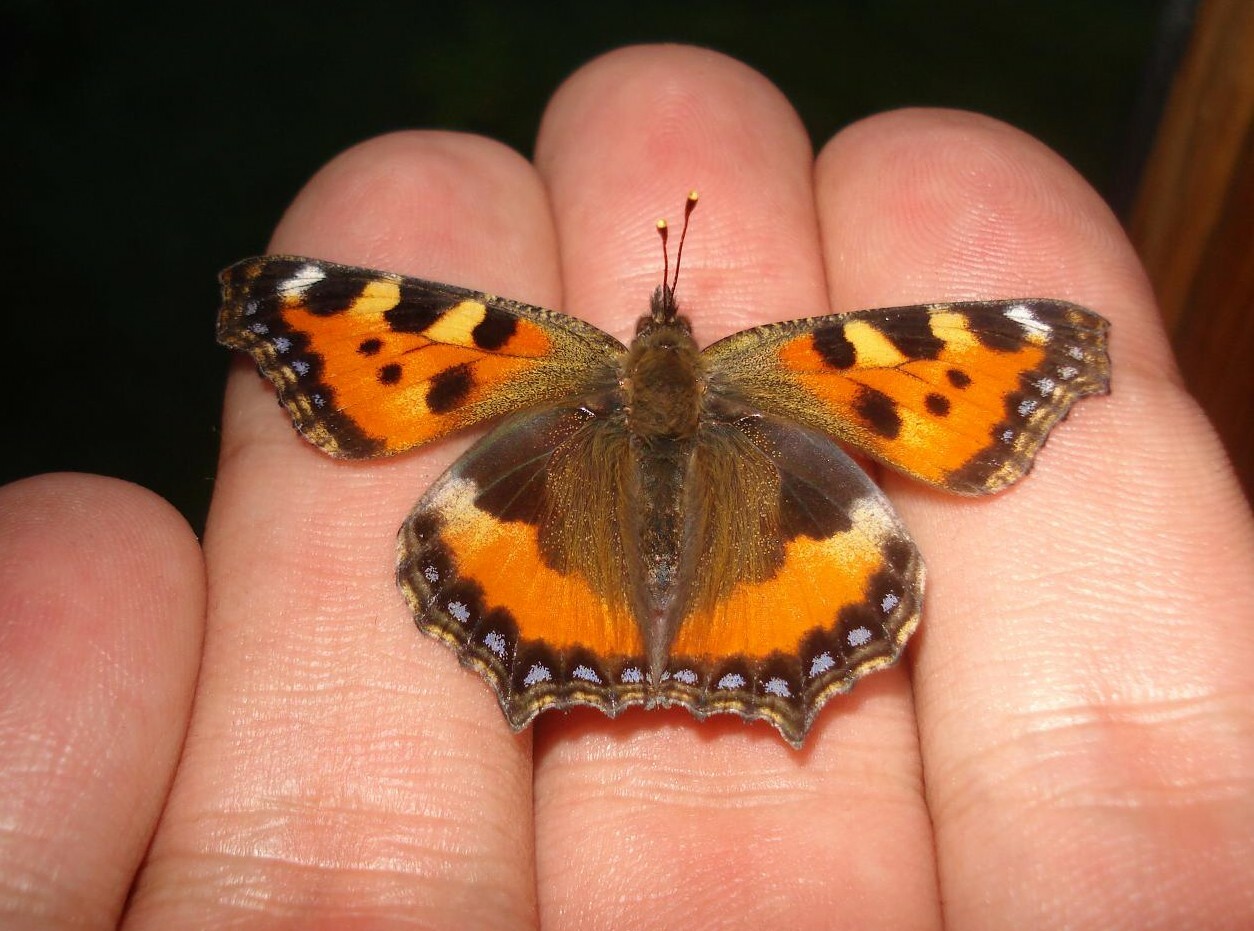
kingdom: Animalia
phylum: Arthropoda
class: Insecta
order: Lepidoptera
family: Nymphalidae
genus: Aglais
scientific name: Aglais urticae
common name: Small tortoiseshell
